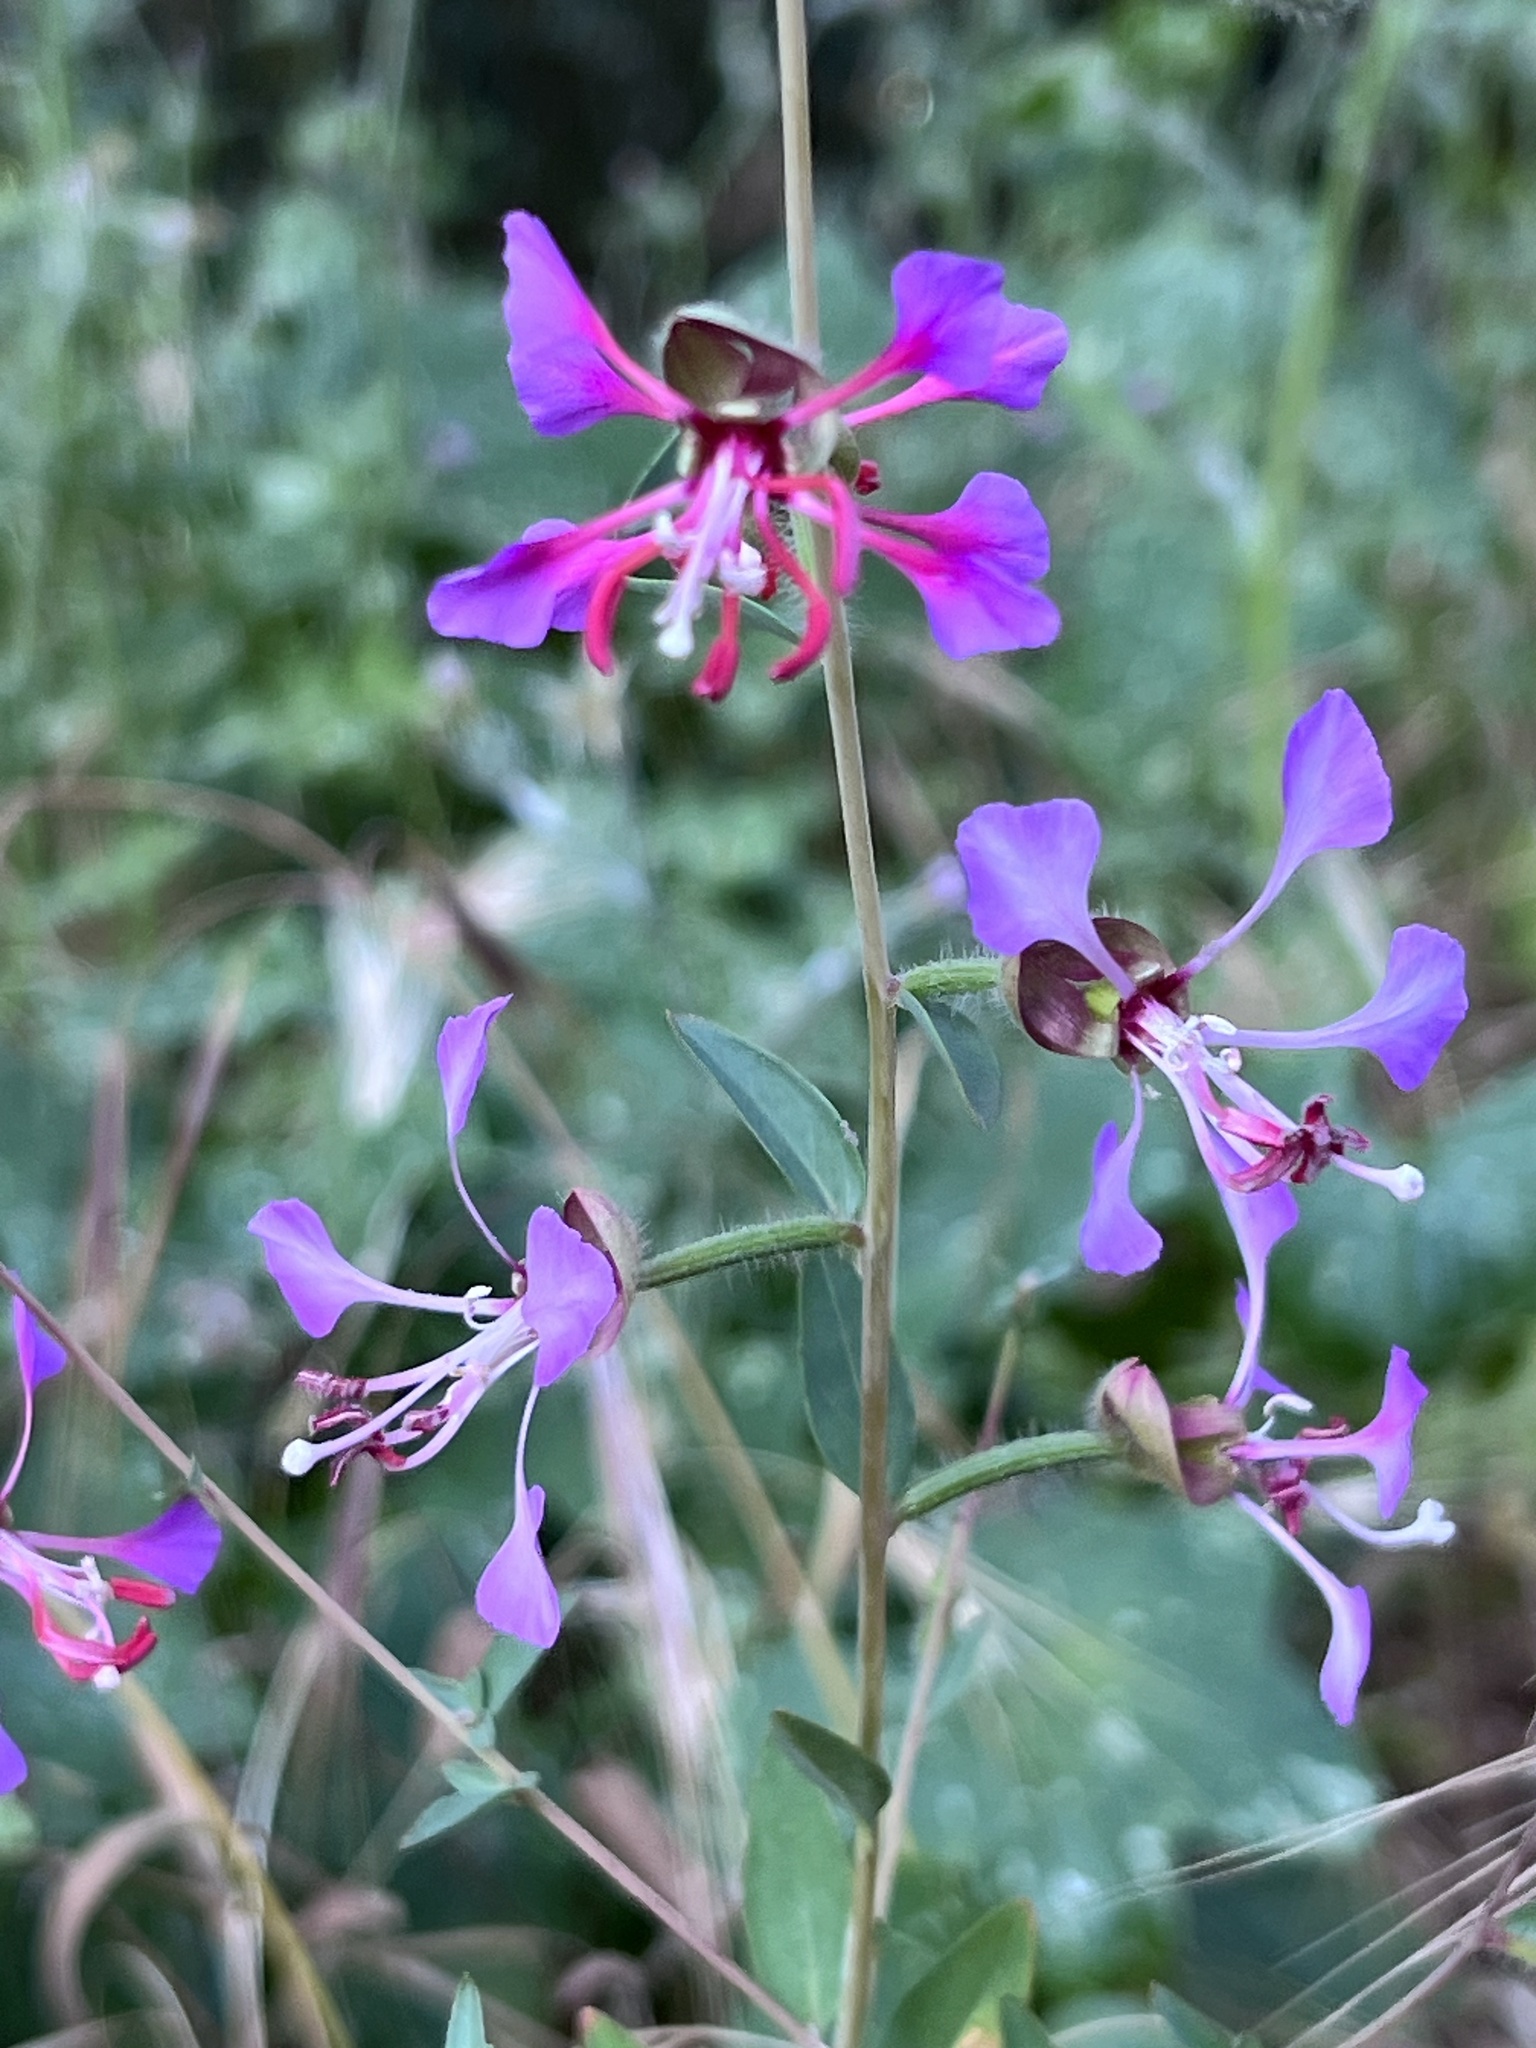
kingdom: Plantae
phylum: Tracheophyta
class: Magnoliopsida
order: Myrtales
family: Onagraceae
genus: Clarkia
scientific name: Clarkia unguiculata
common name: Clarkia
